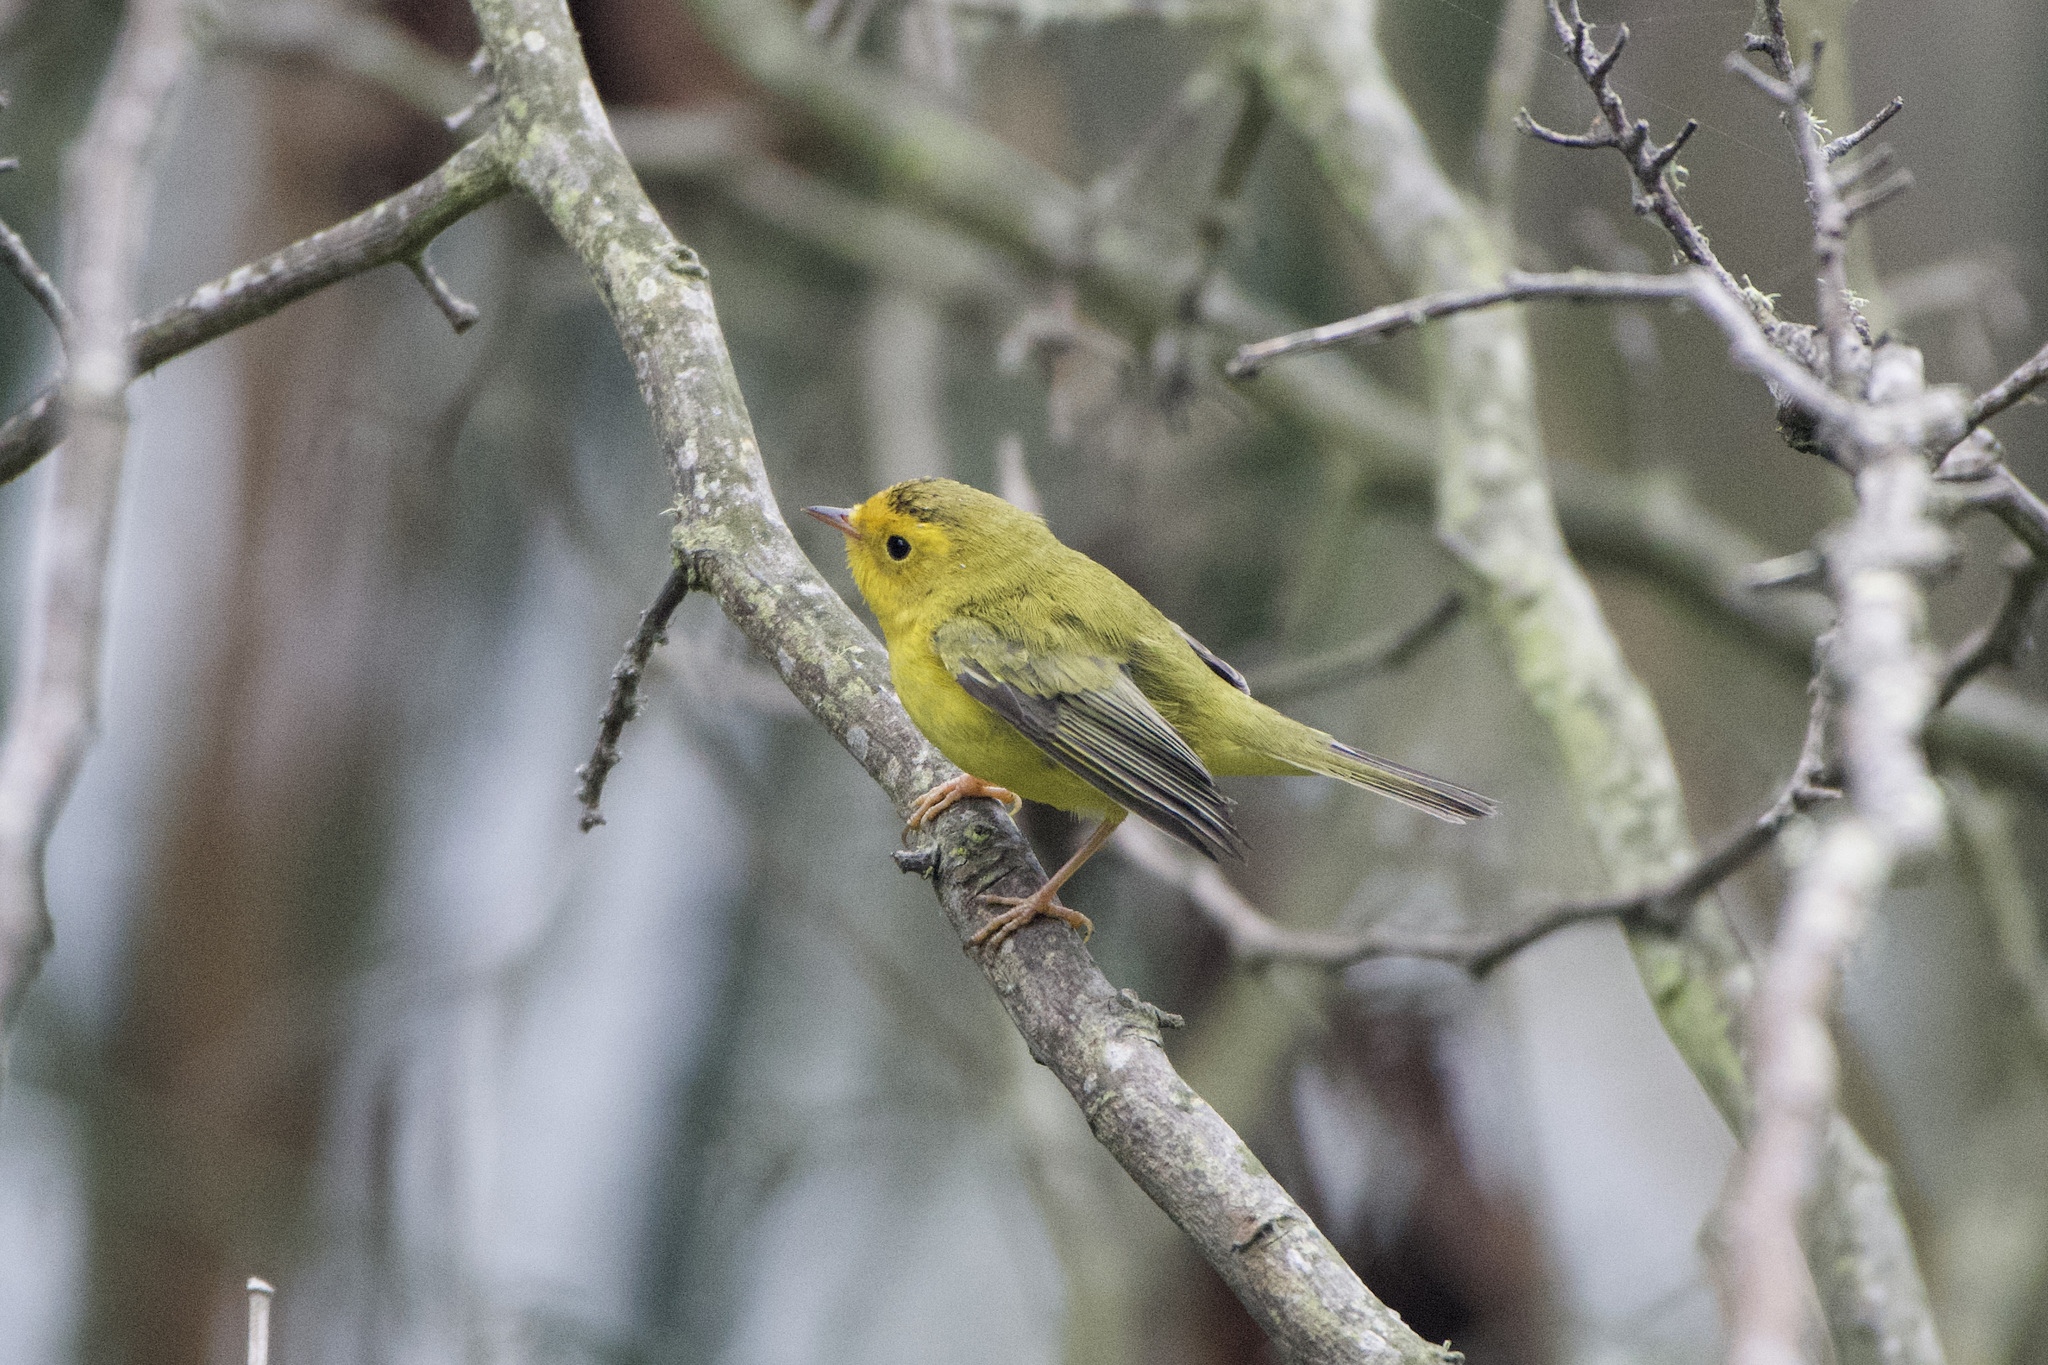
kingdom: Animalia
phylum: Chordata
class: Aves
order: Passeriformes
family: Parulidae
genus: Cardellina
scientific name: Cardellina pusilla
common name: Wilson's warbler
